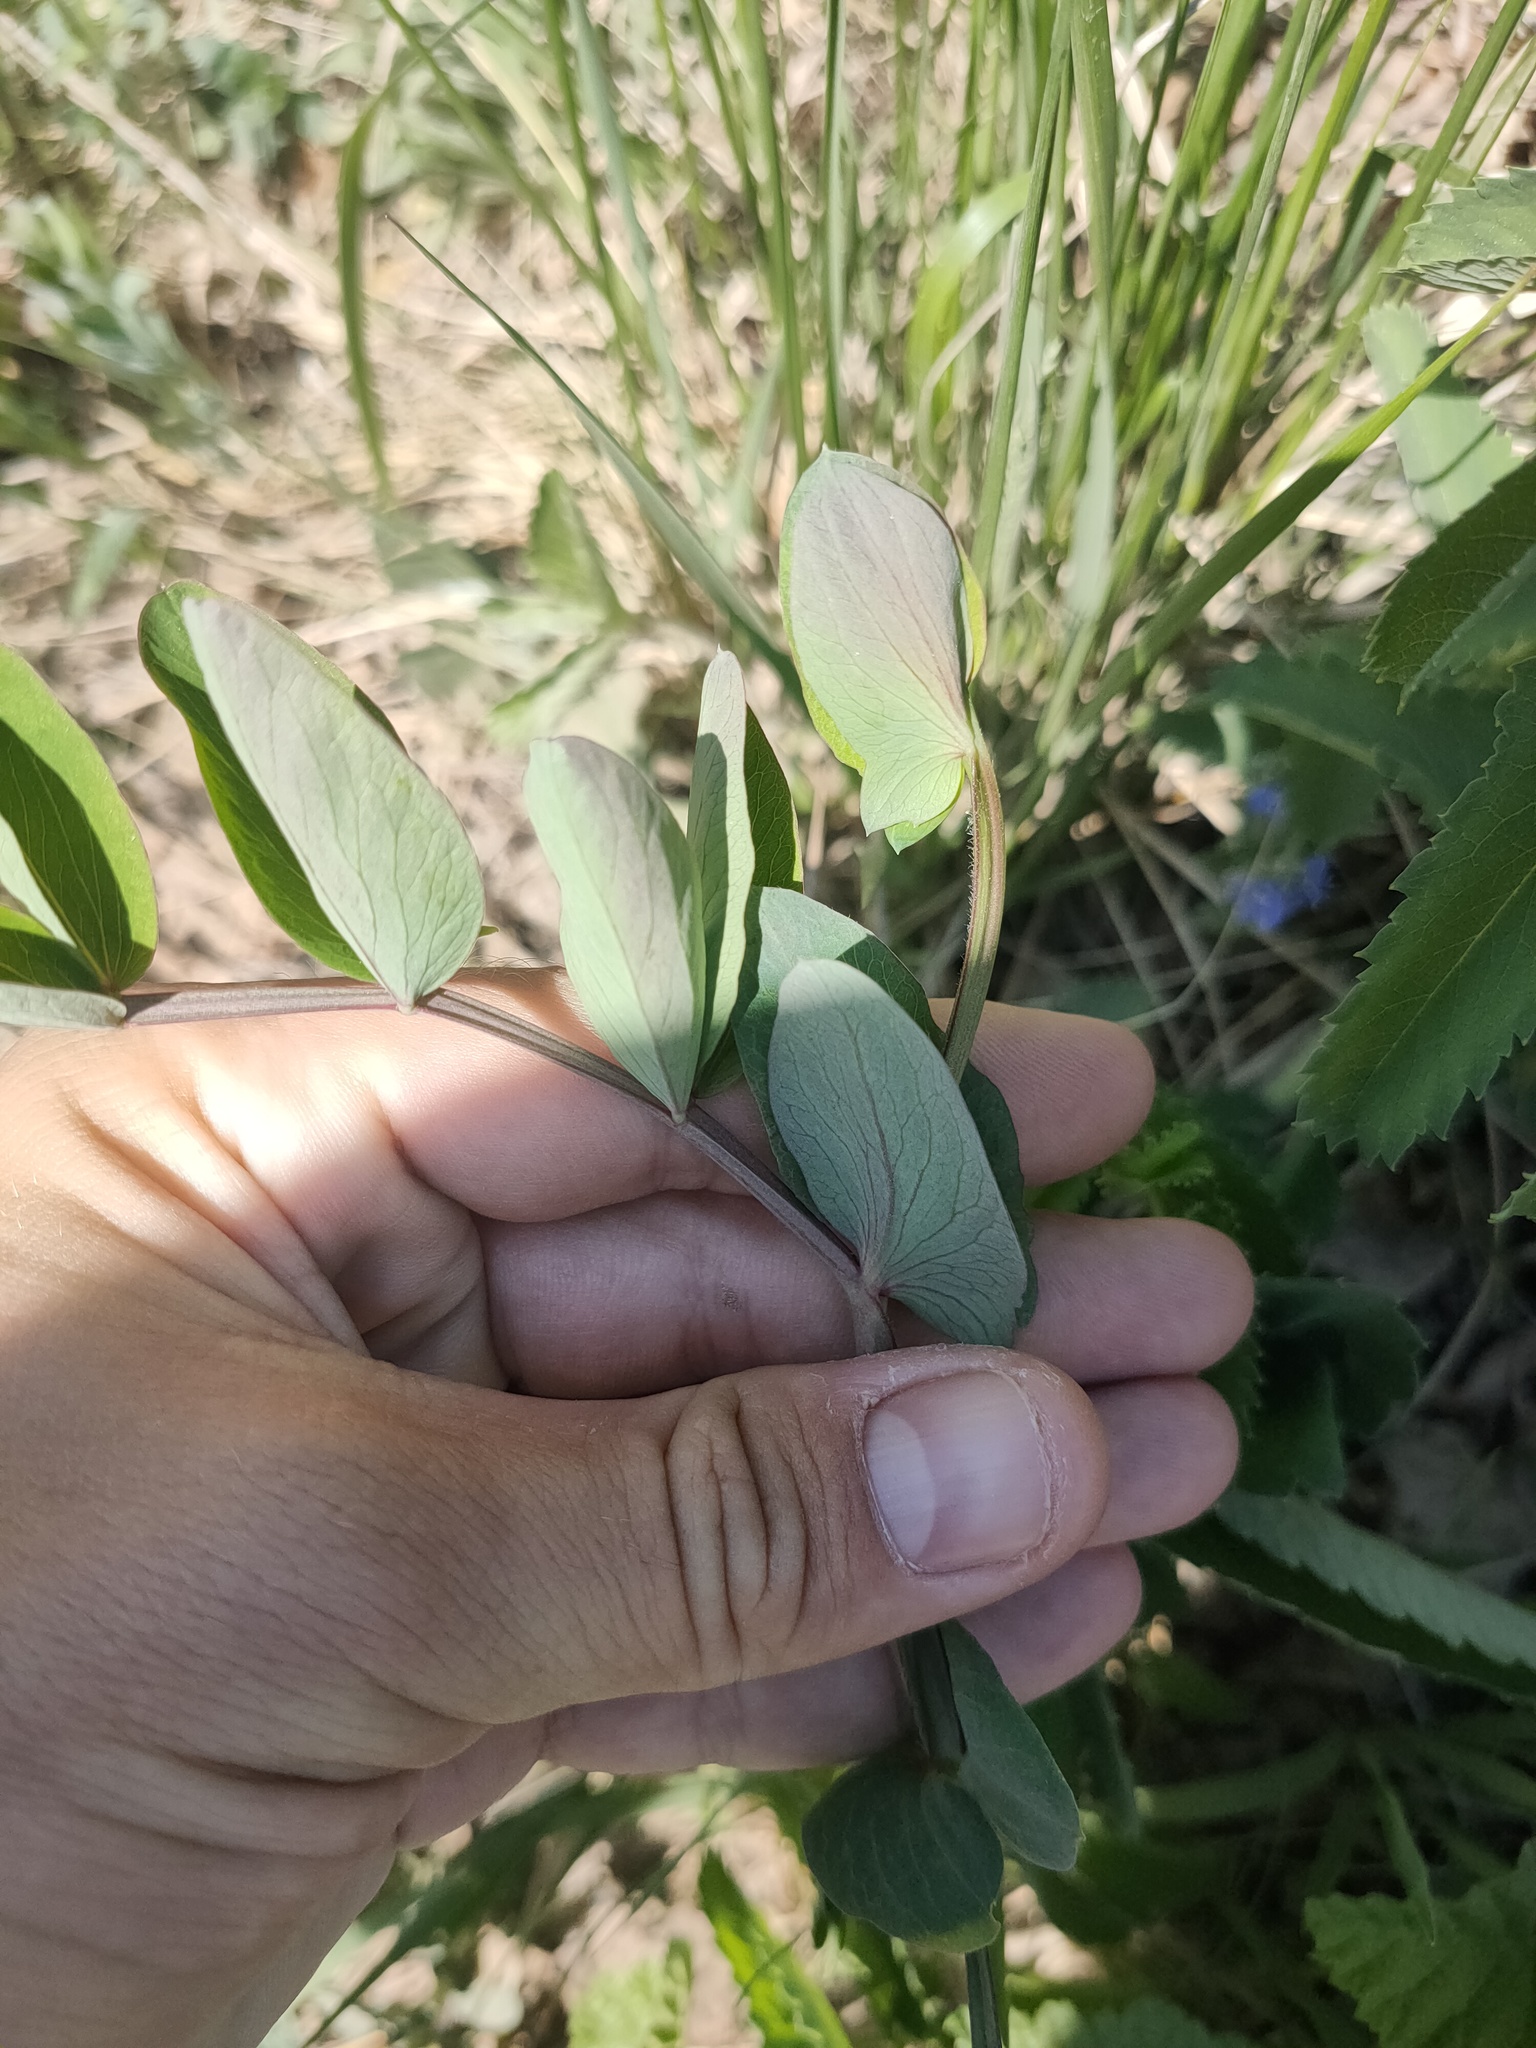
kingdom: Plantae
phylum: Tracheophyta
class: Magnoliopsida
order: Fabales
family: Fabaceae
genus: Lathyrus
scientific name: Lathyrus pisiformis
